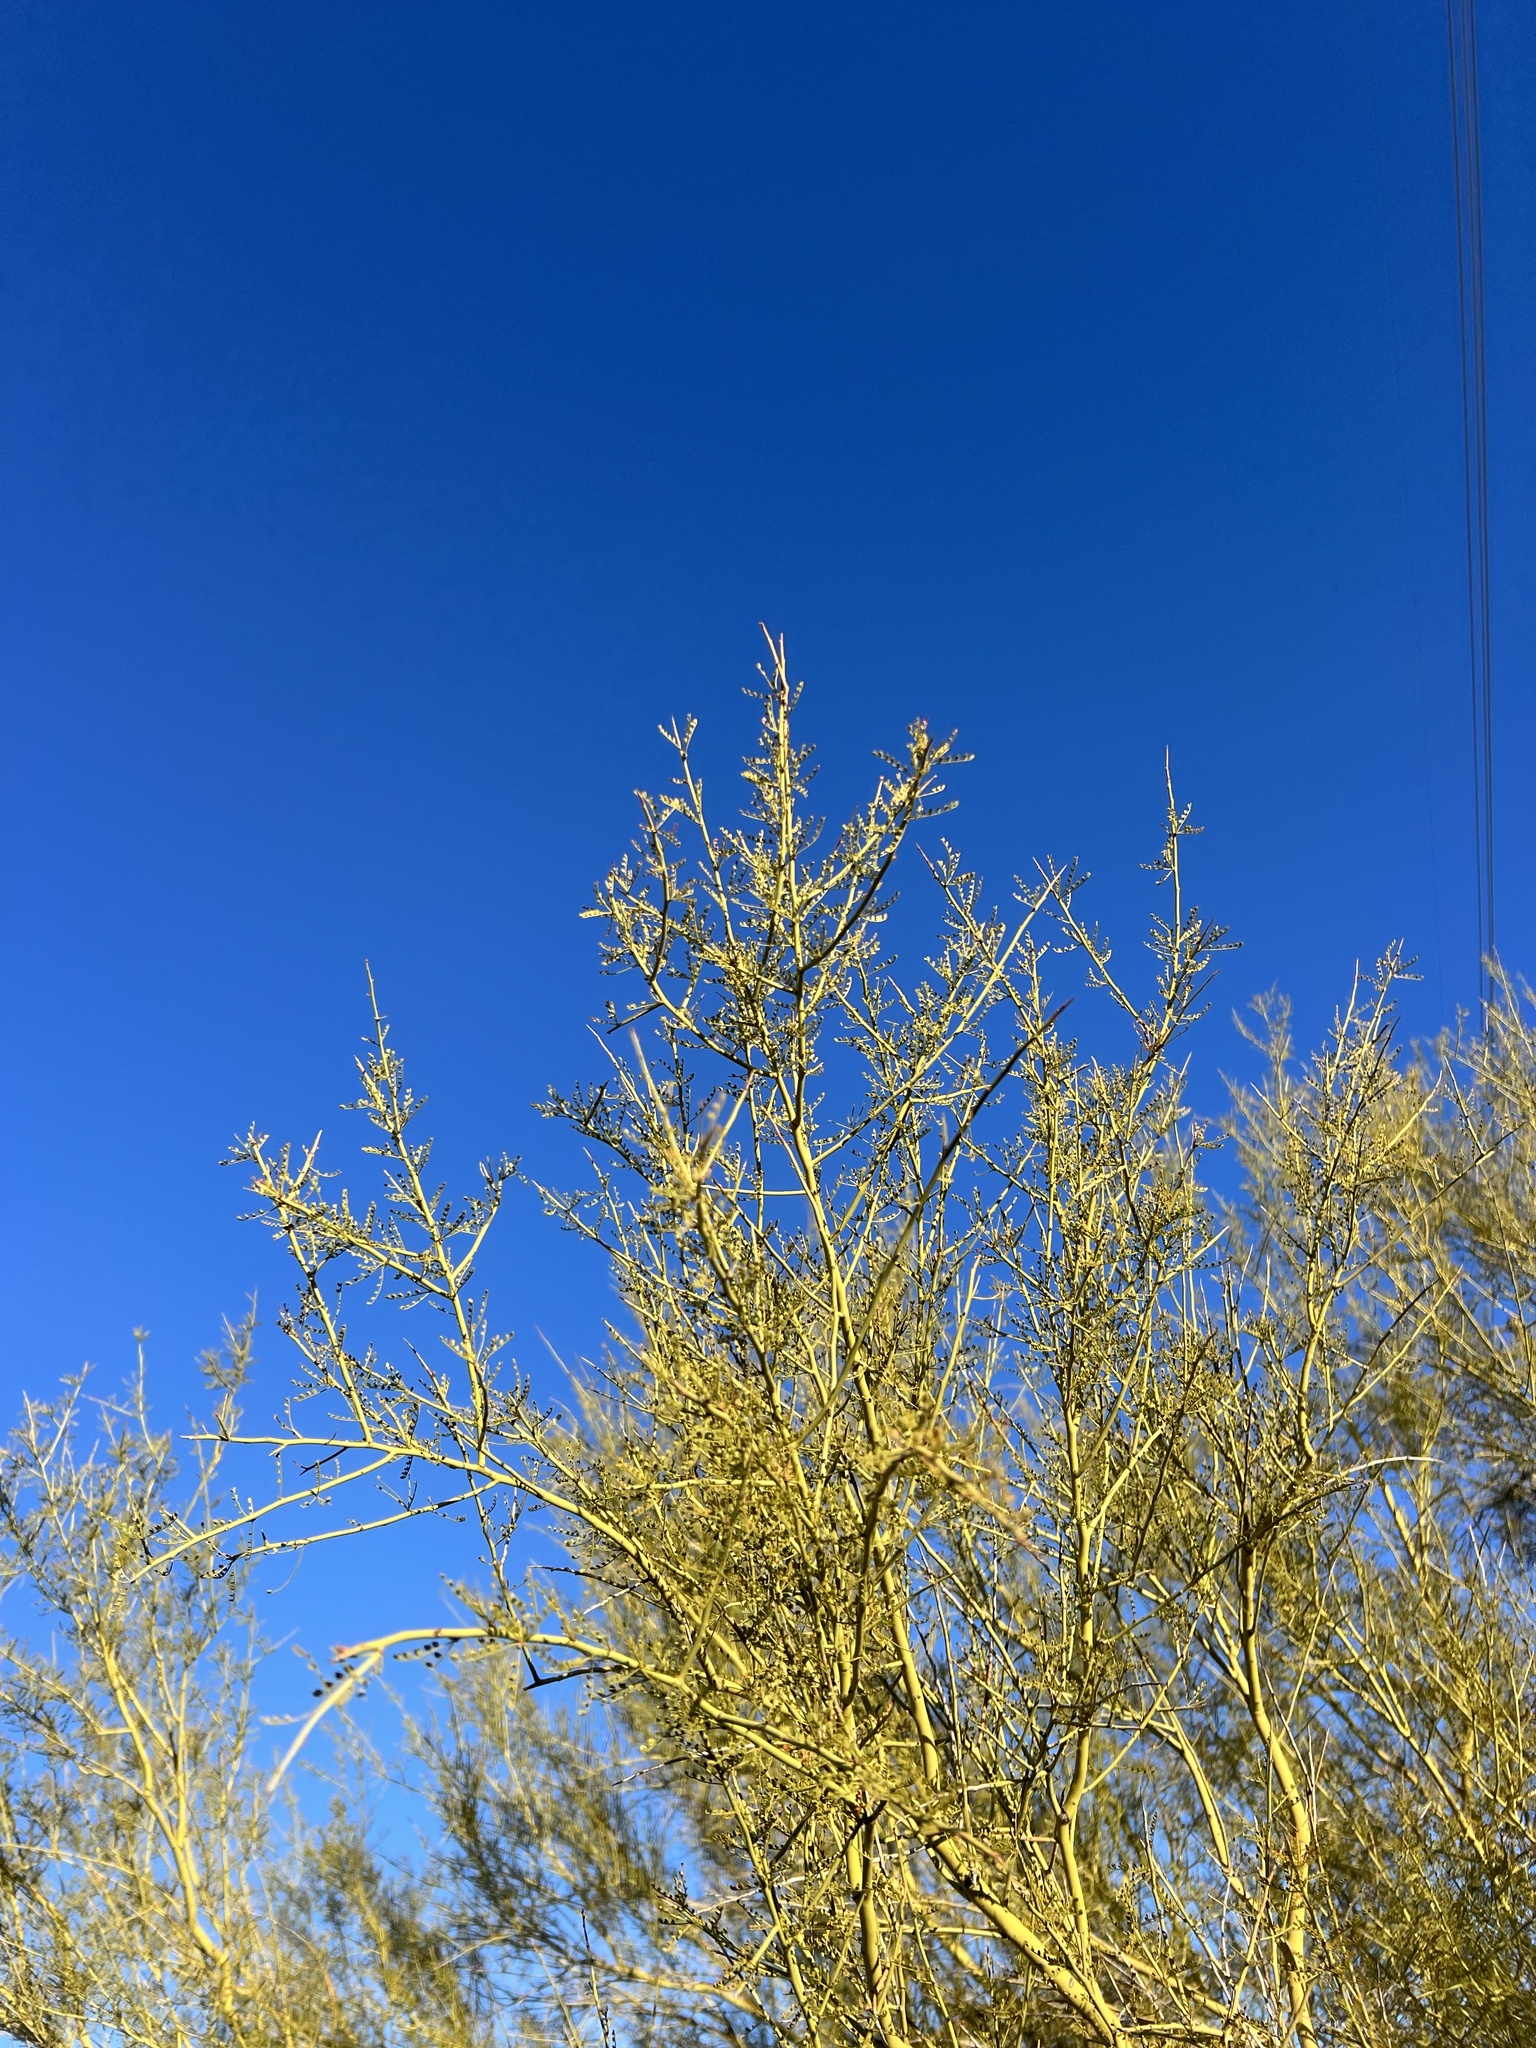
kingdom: Plantae
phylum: Tracheophyta
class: Magnoliopsida
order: Fabales
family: Fabaceae
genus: Parkinsonia
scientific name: Parkinsonia microphylla
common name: Yellow paloverde
